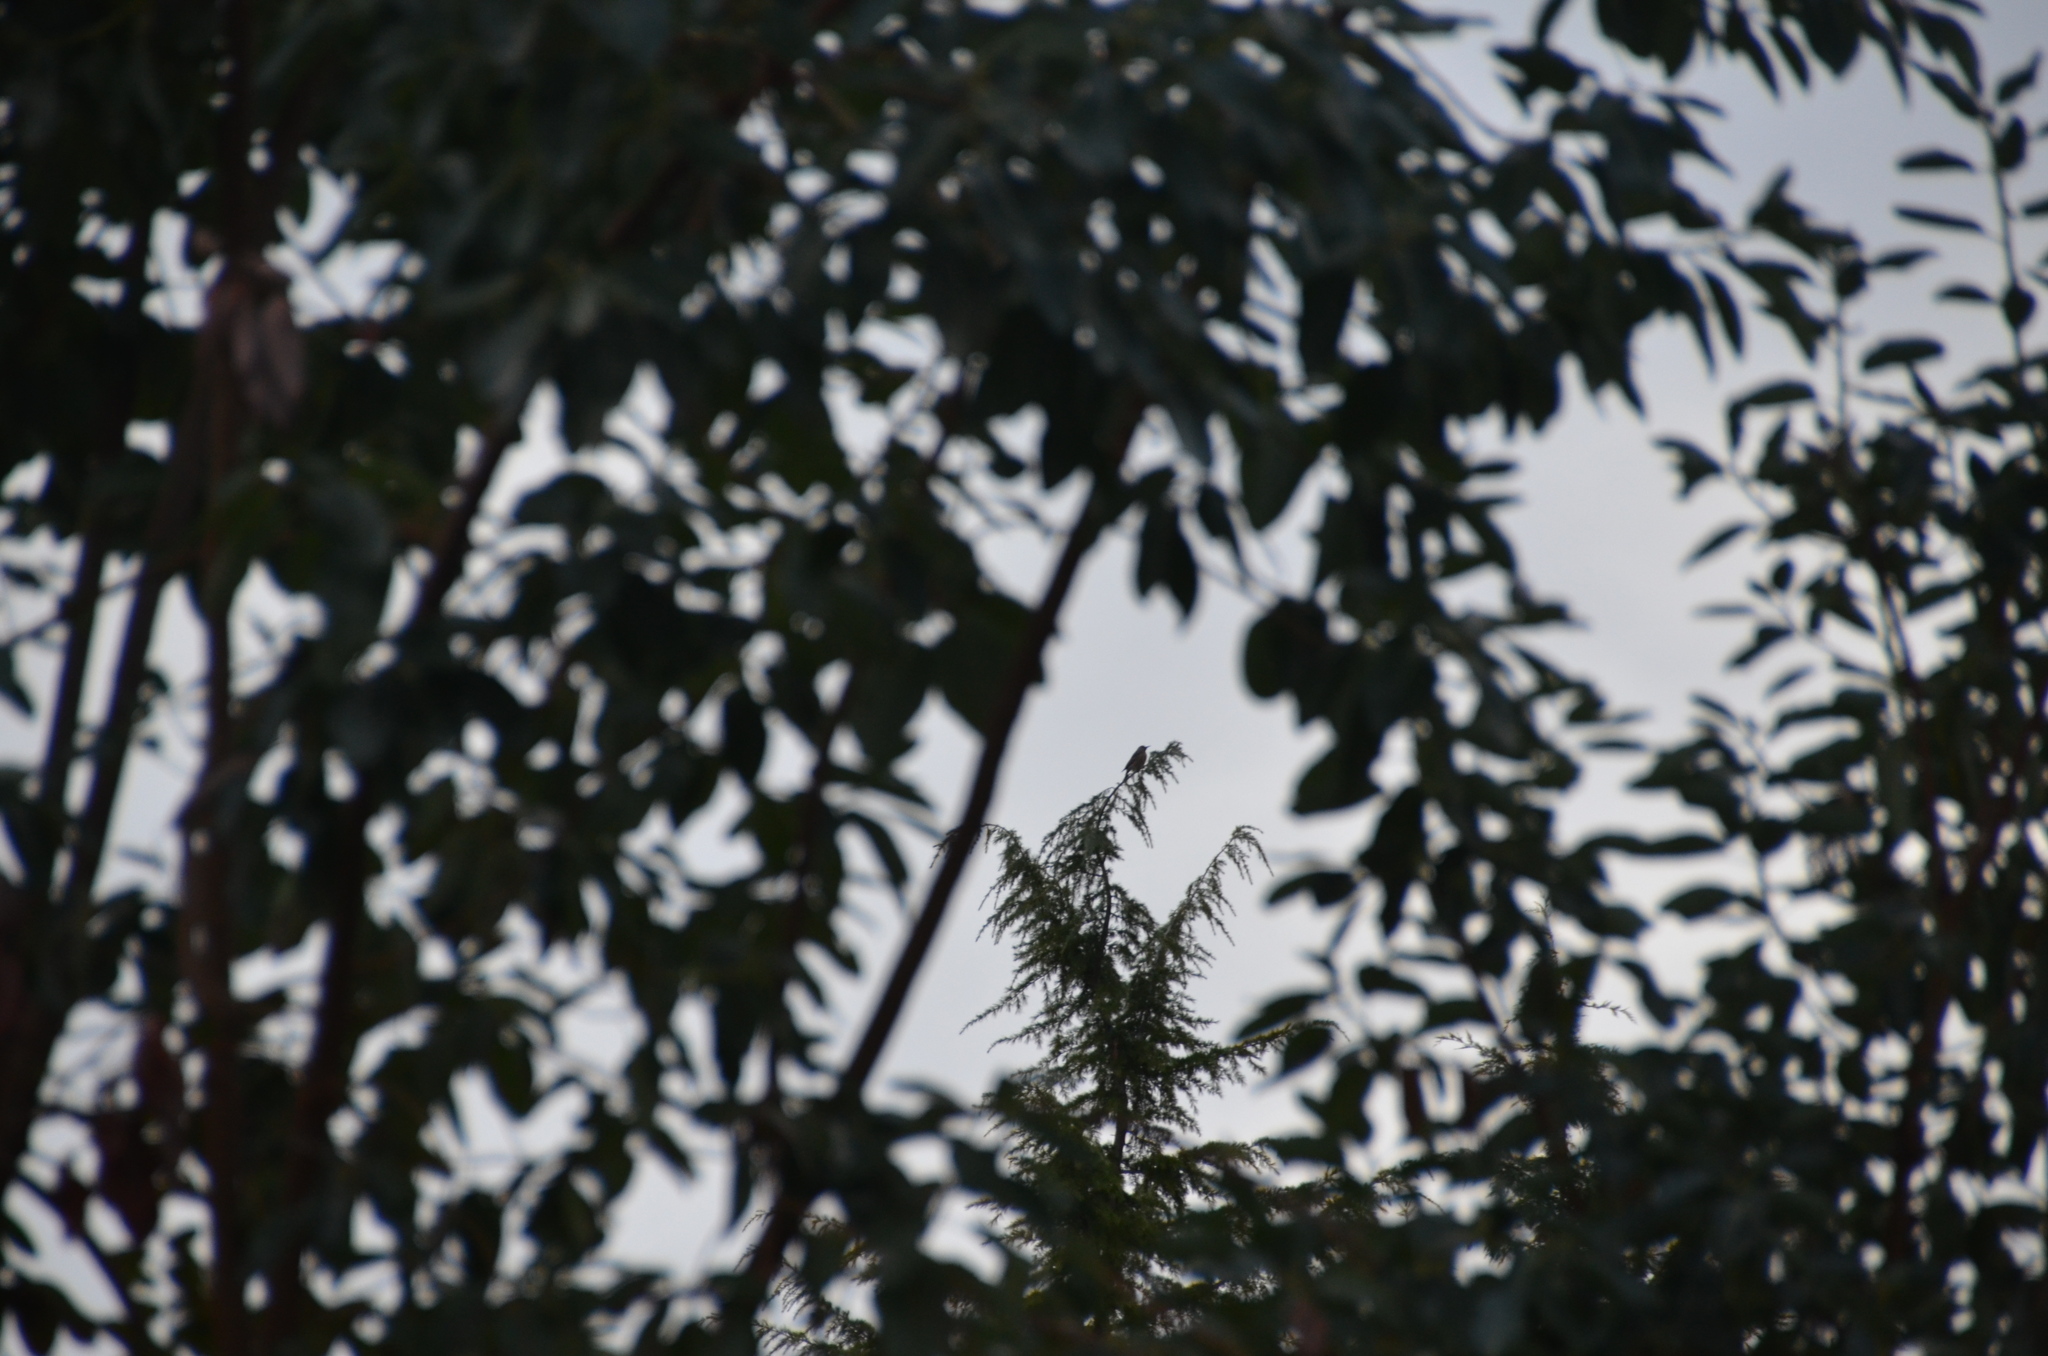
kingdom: Animalia
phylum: Chordata
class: Aves
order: Passeriformes
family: Turdidae
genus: Turdus
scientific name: Turdus migratorius
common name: American robin
